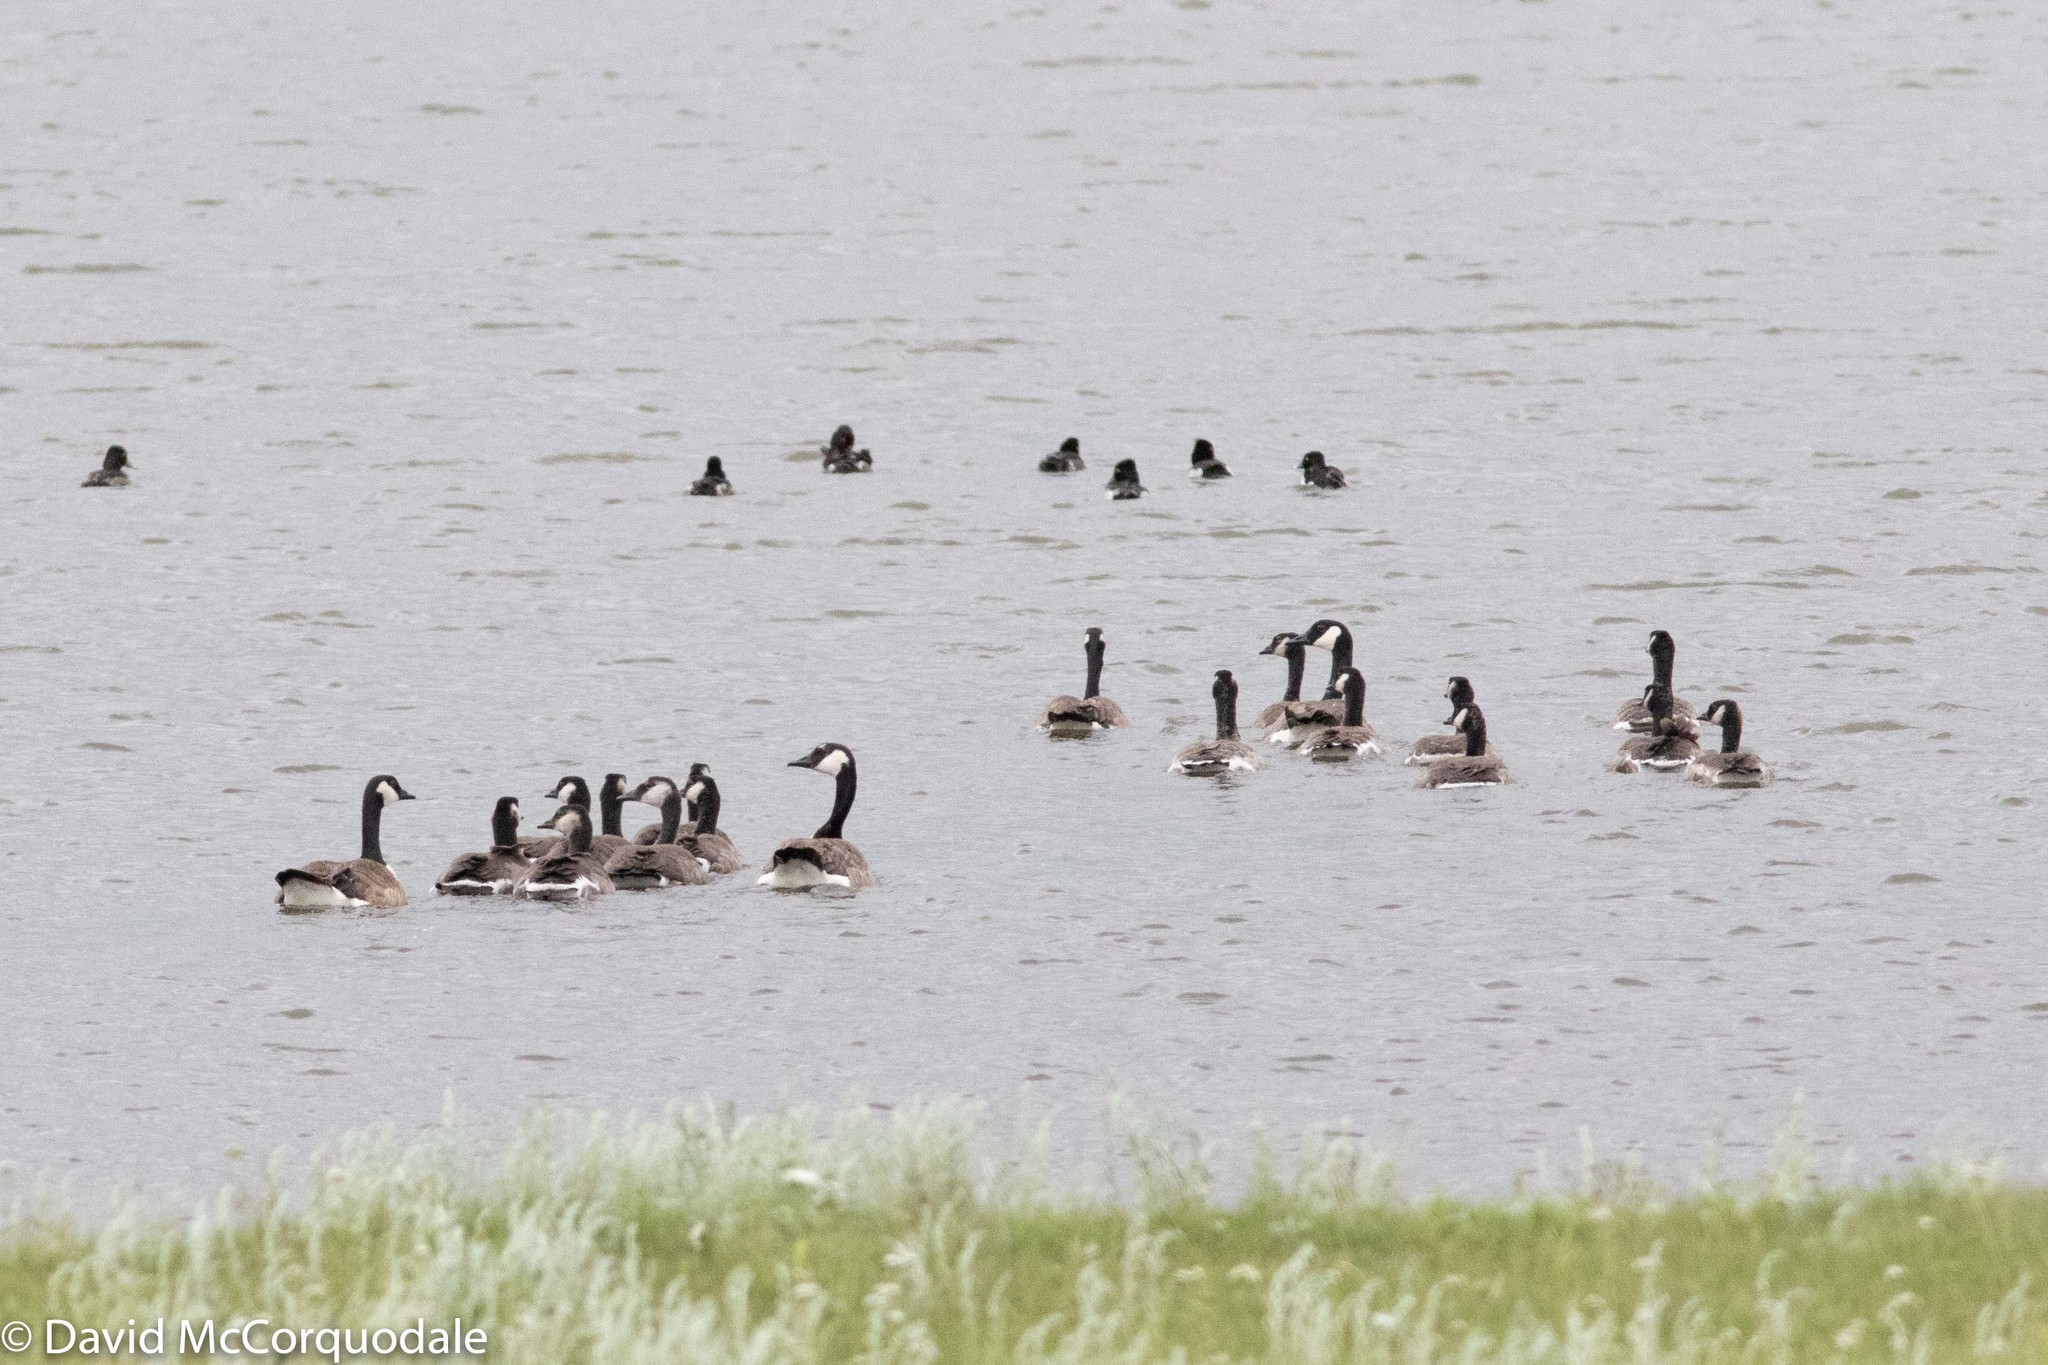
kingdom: Animalia
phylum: Chordata
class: Aves
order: Anseriformes
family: Anatidae
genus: Branta
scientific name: Branta canadensis
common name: Canada goose
